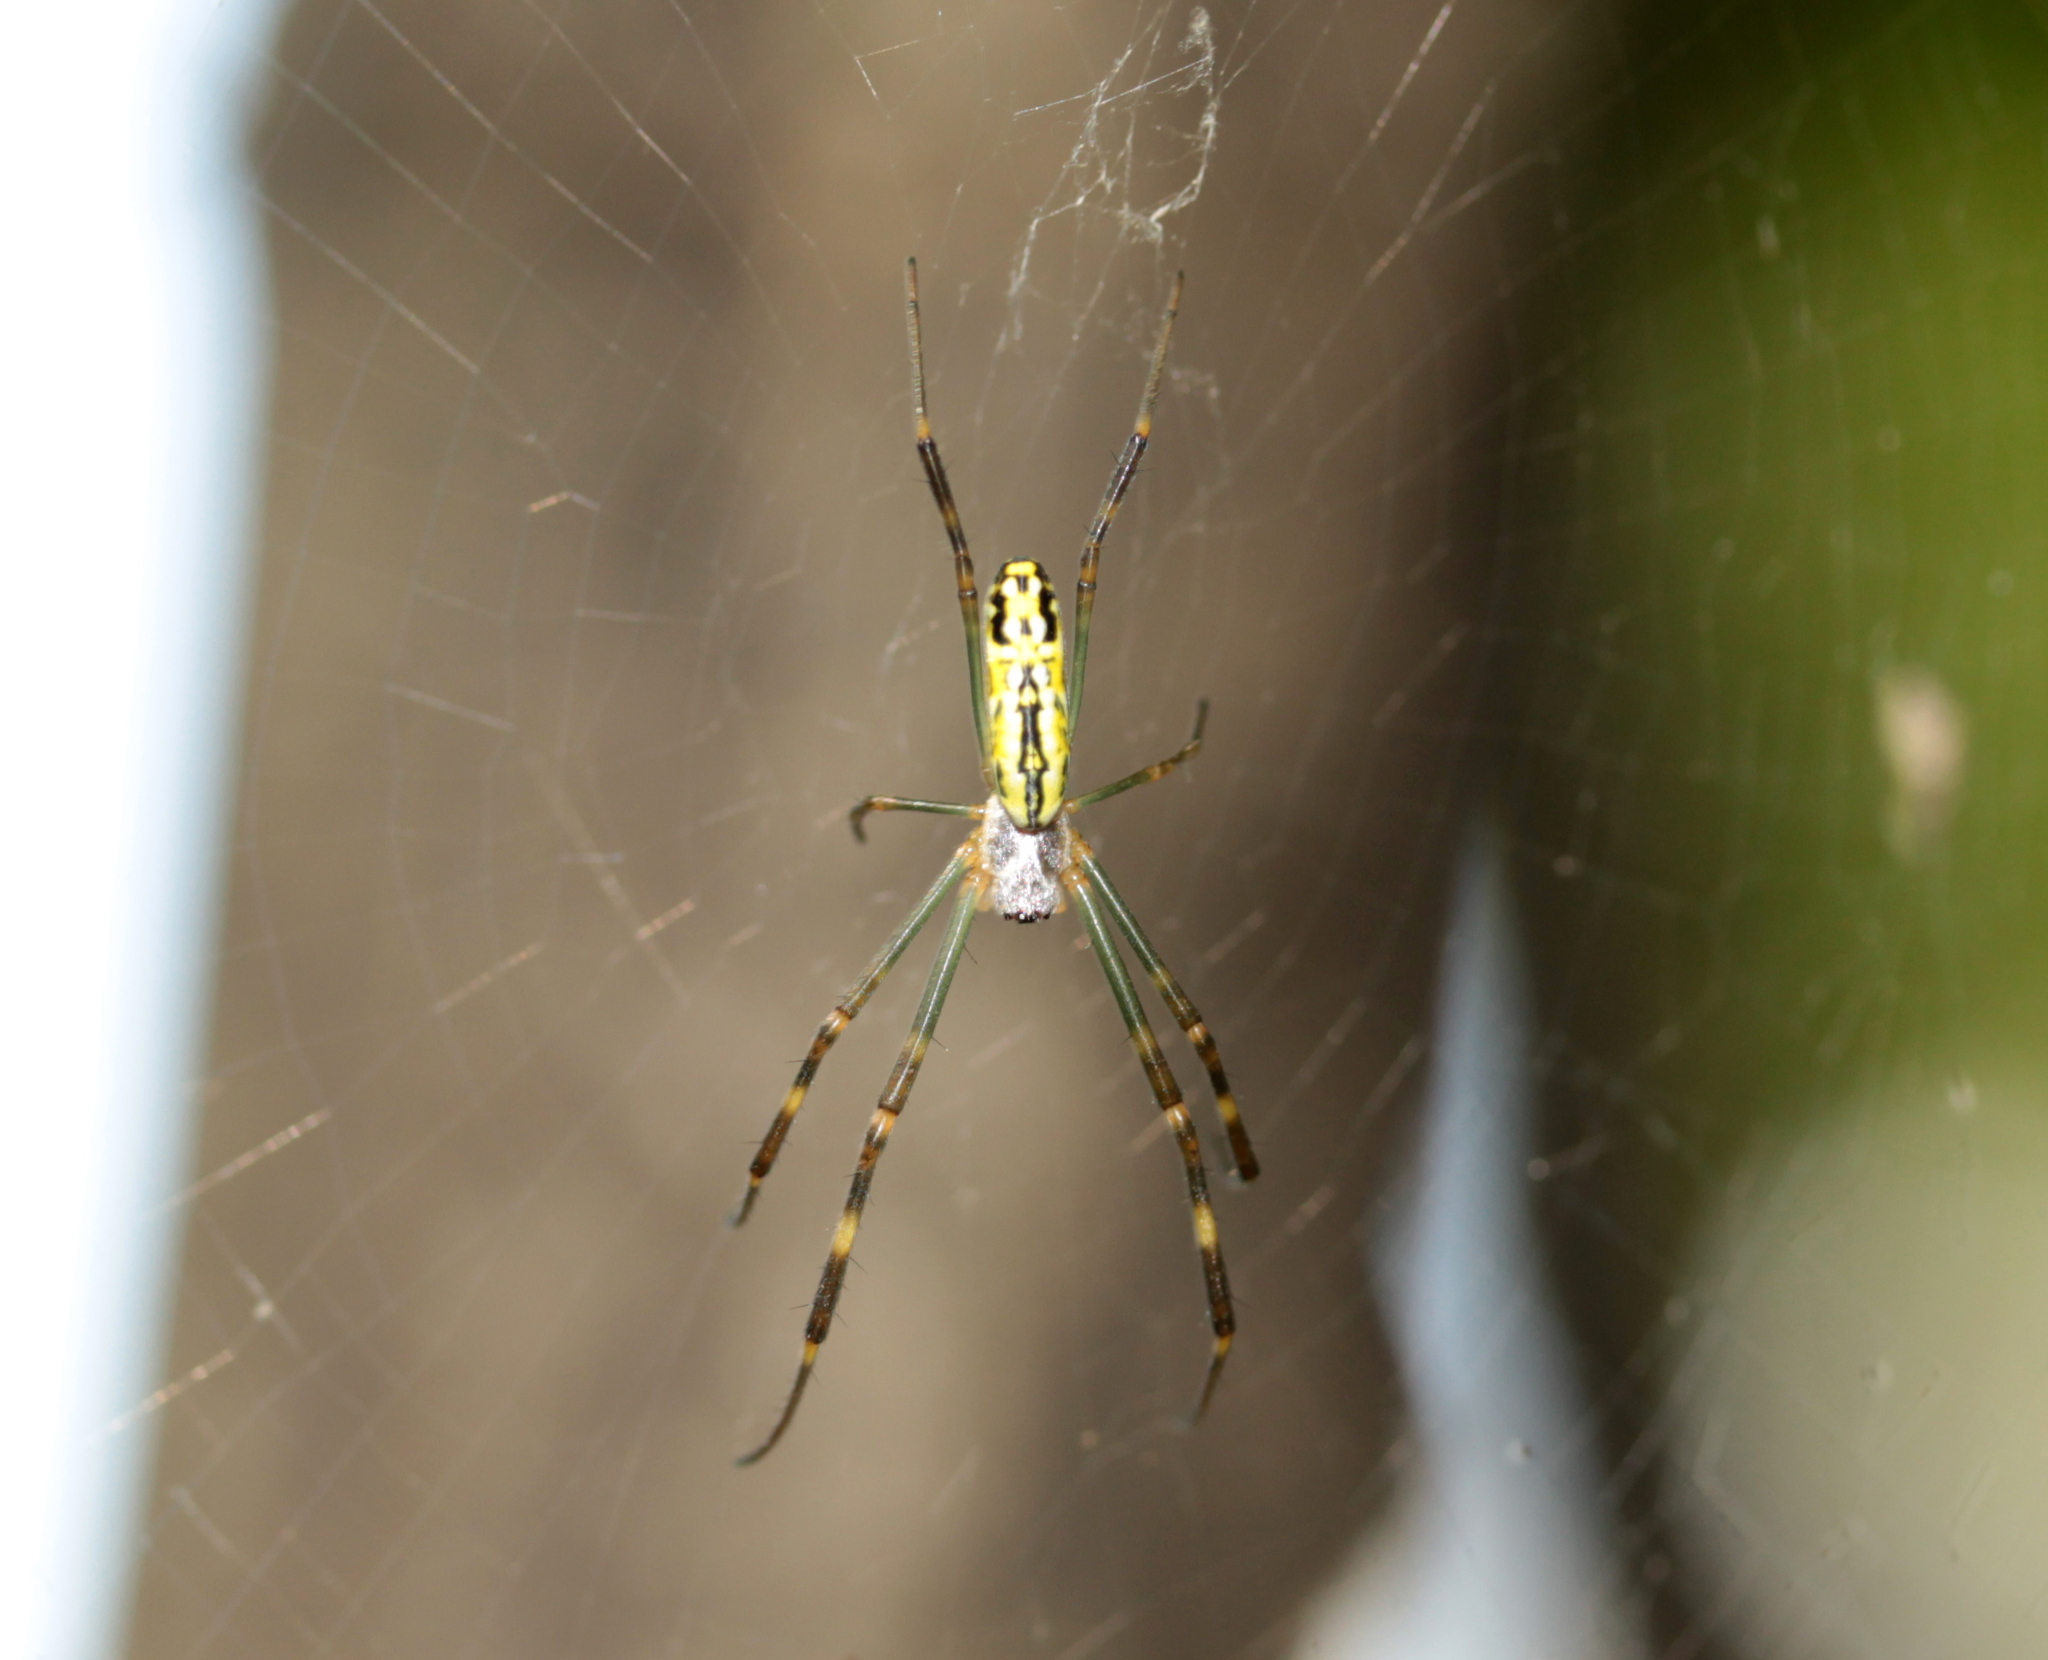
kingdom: Animalia
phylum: Arthropoda
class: Arachnida
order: Araneae
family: Araneidae
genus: Trichonephila
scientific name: Trichonephila clavata
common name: Jorō spider
